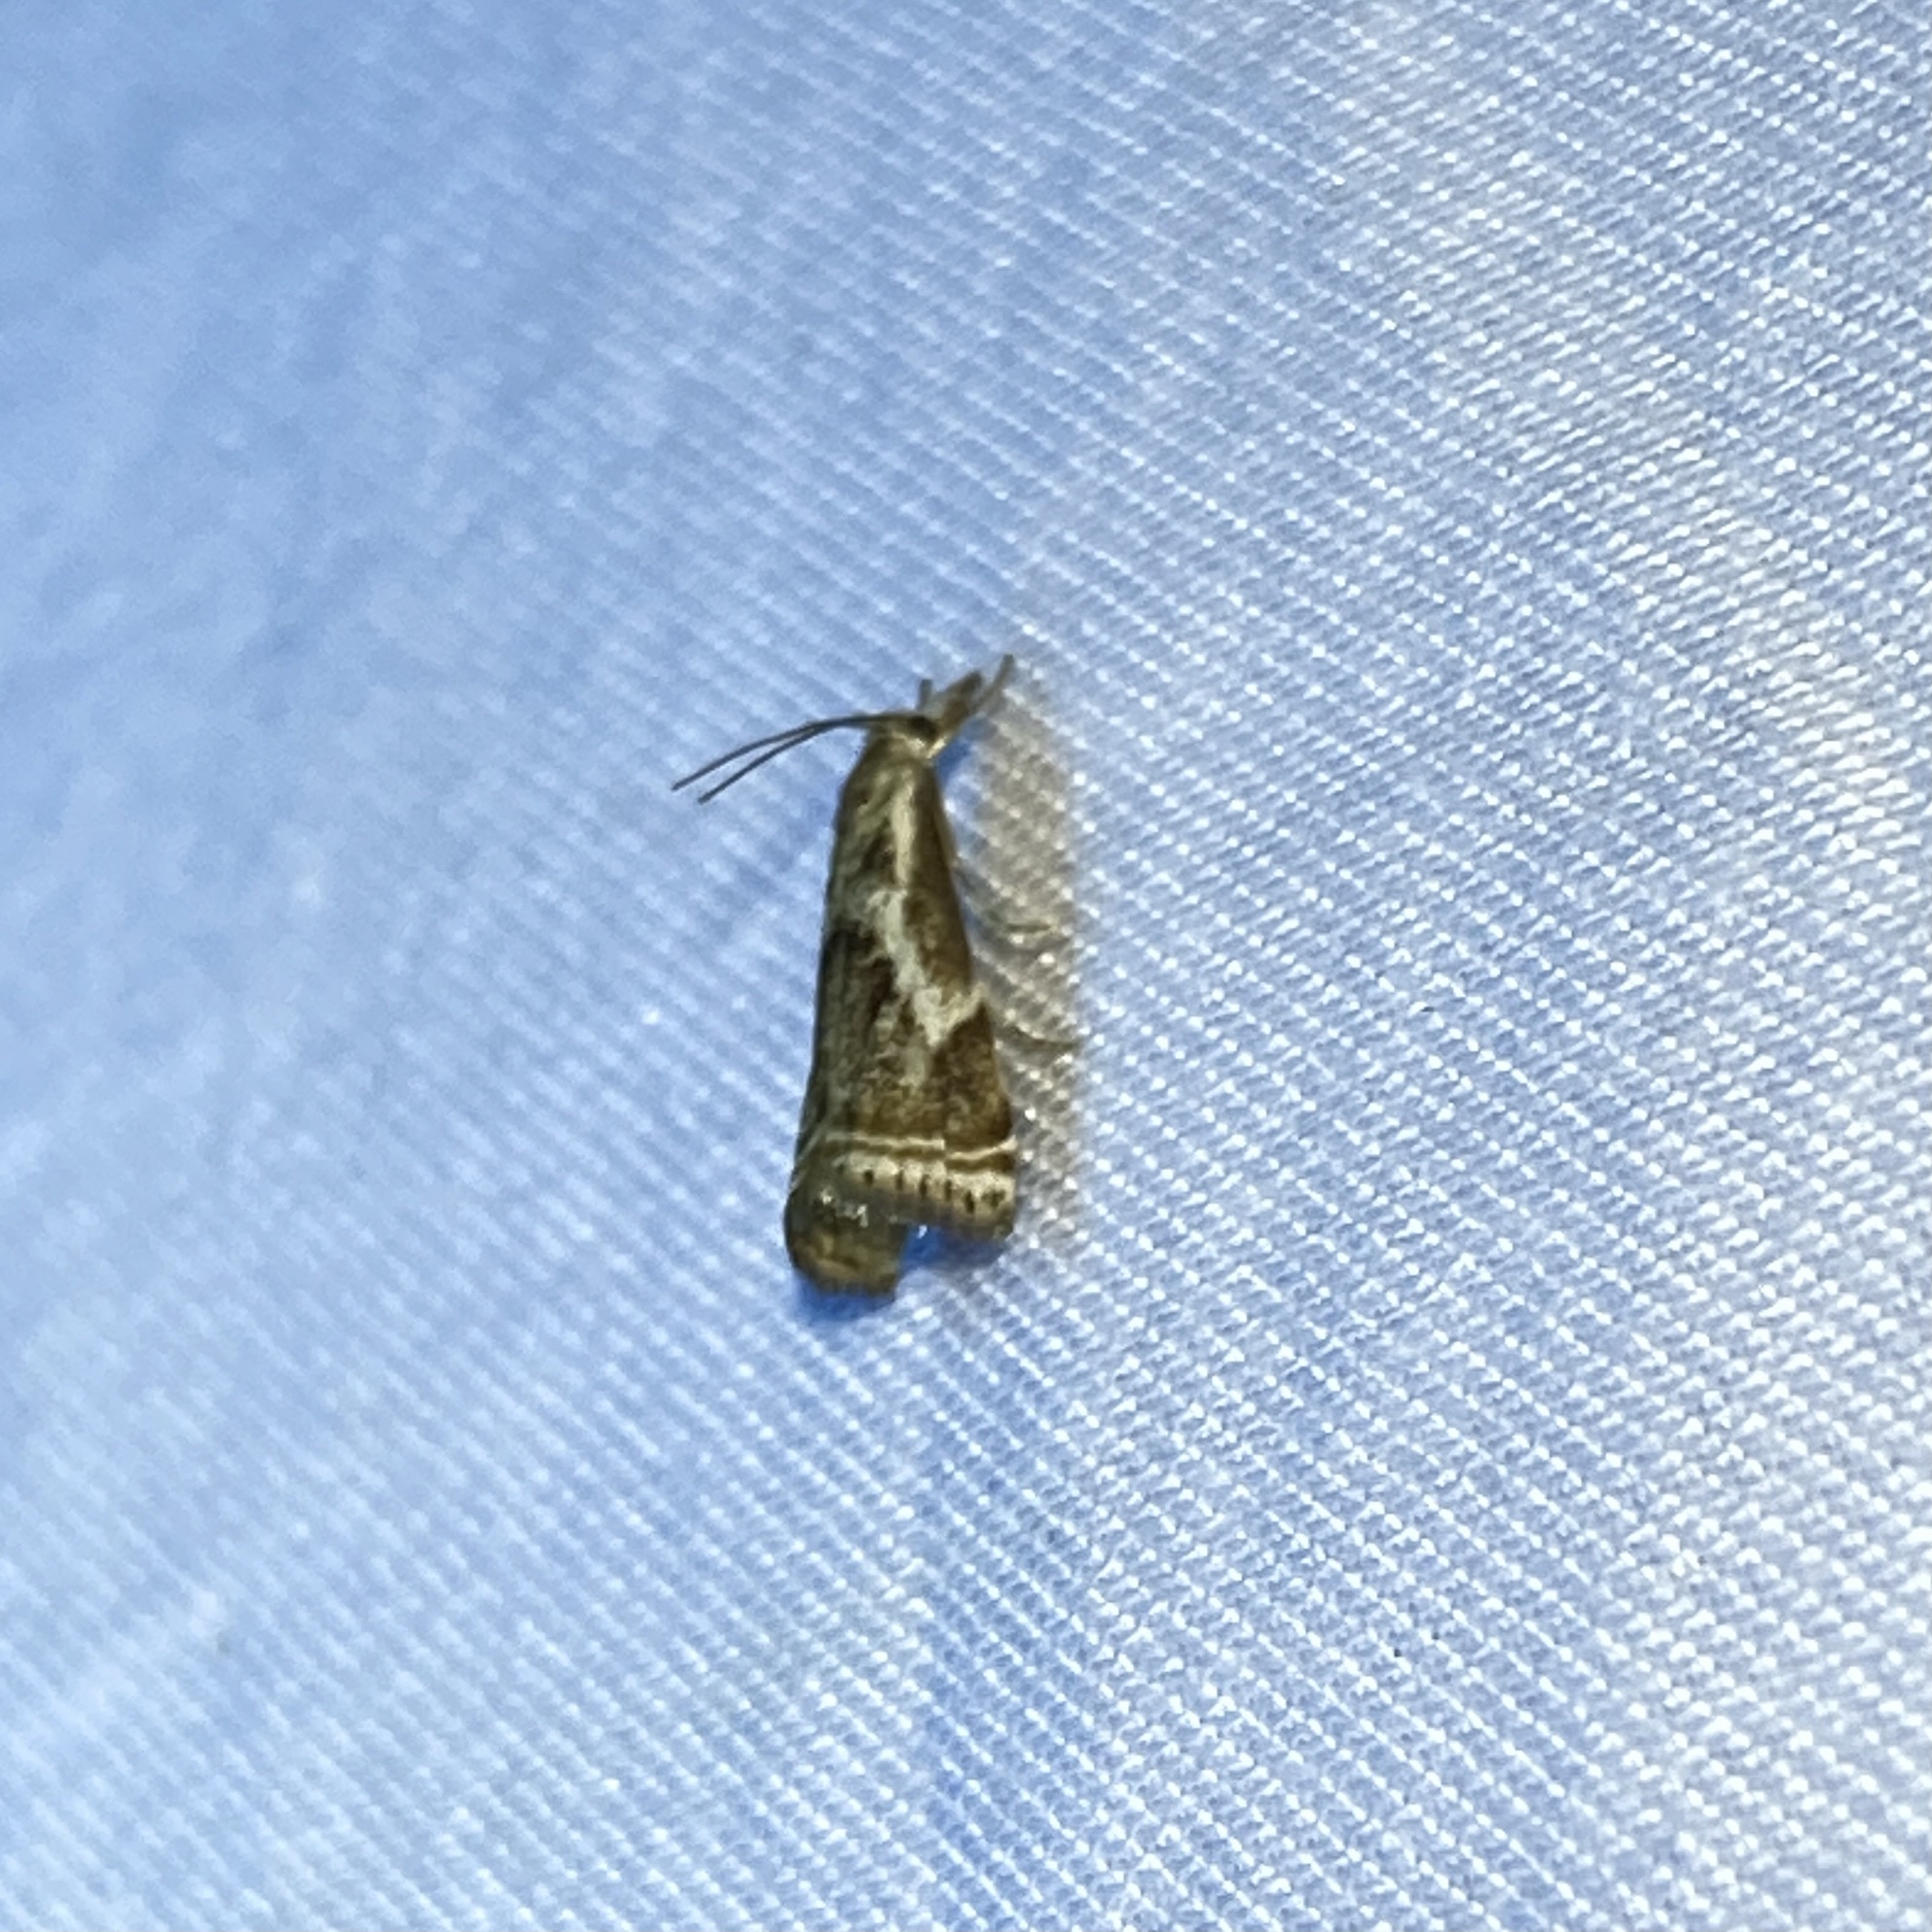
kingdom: Animalia
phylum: Arthropoda
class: Insecta
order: Lepidoptera
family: Crambidae
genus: Microcrambus
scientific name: Microcrambus elegans
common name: Elegant grass-veneer
